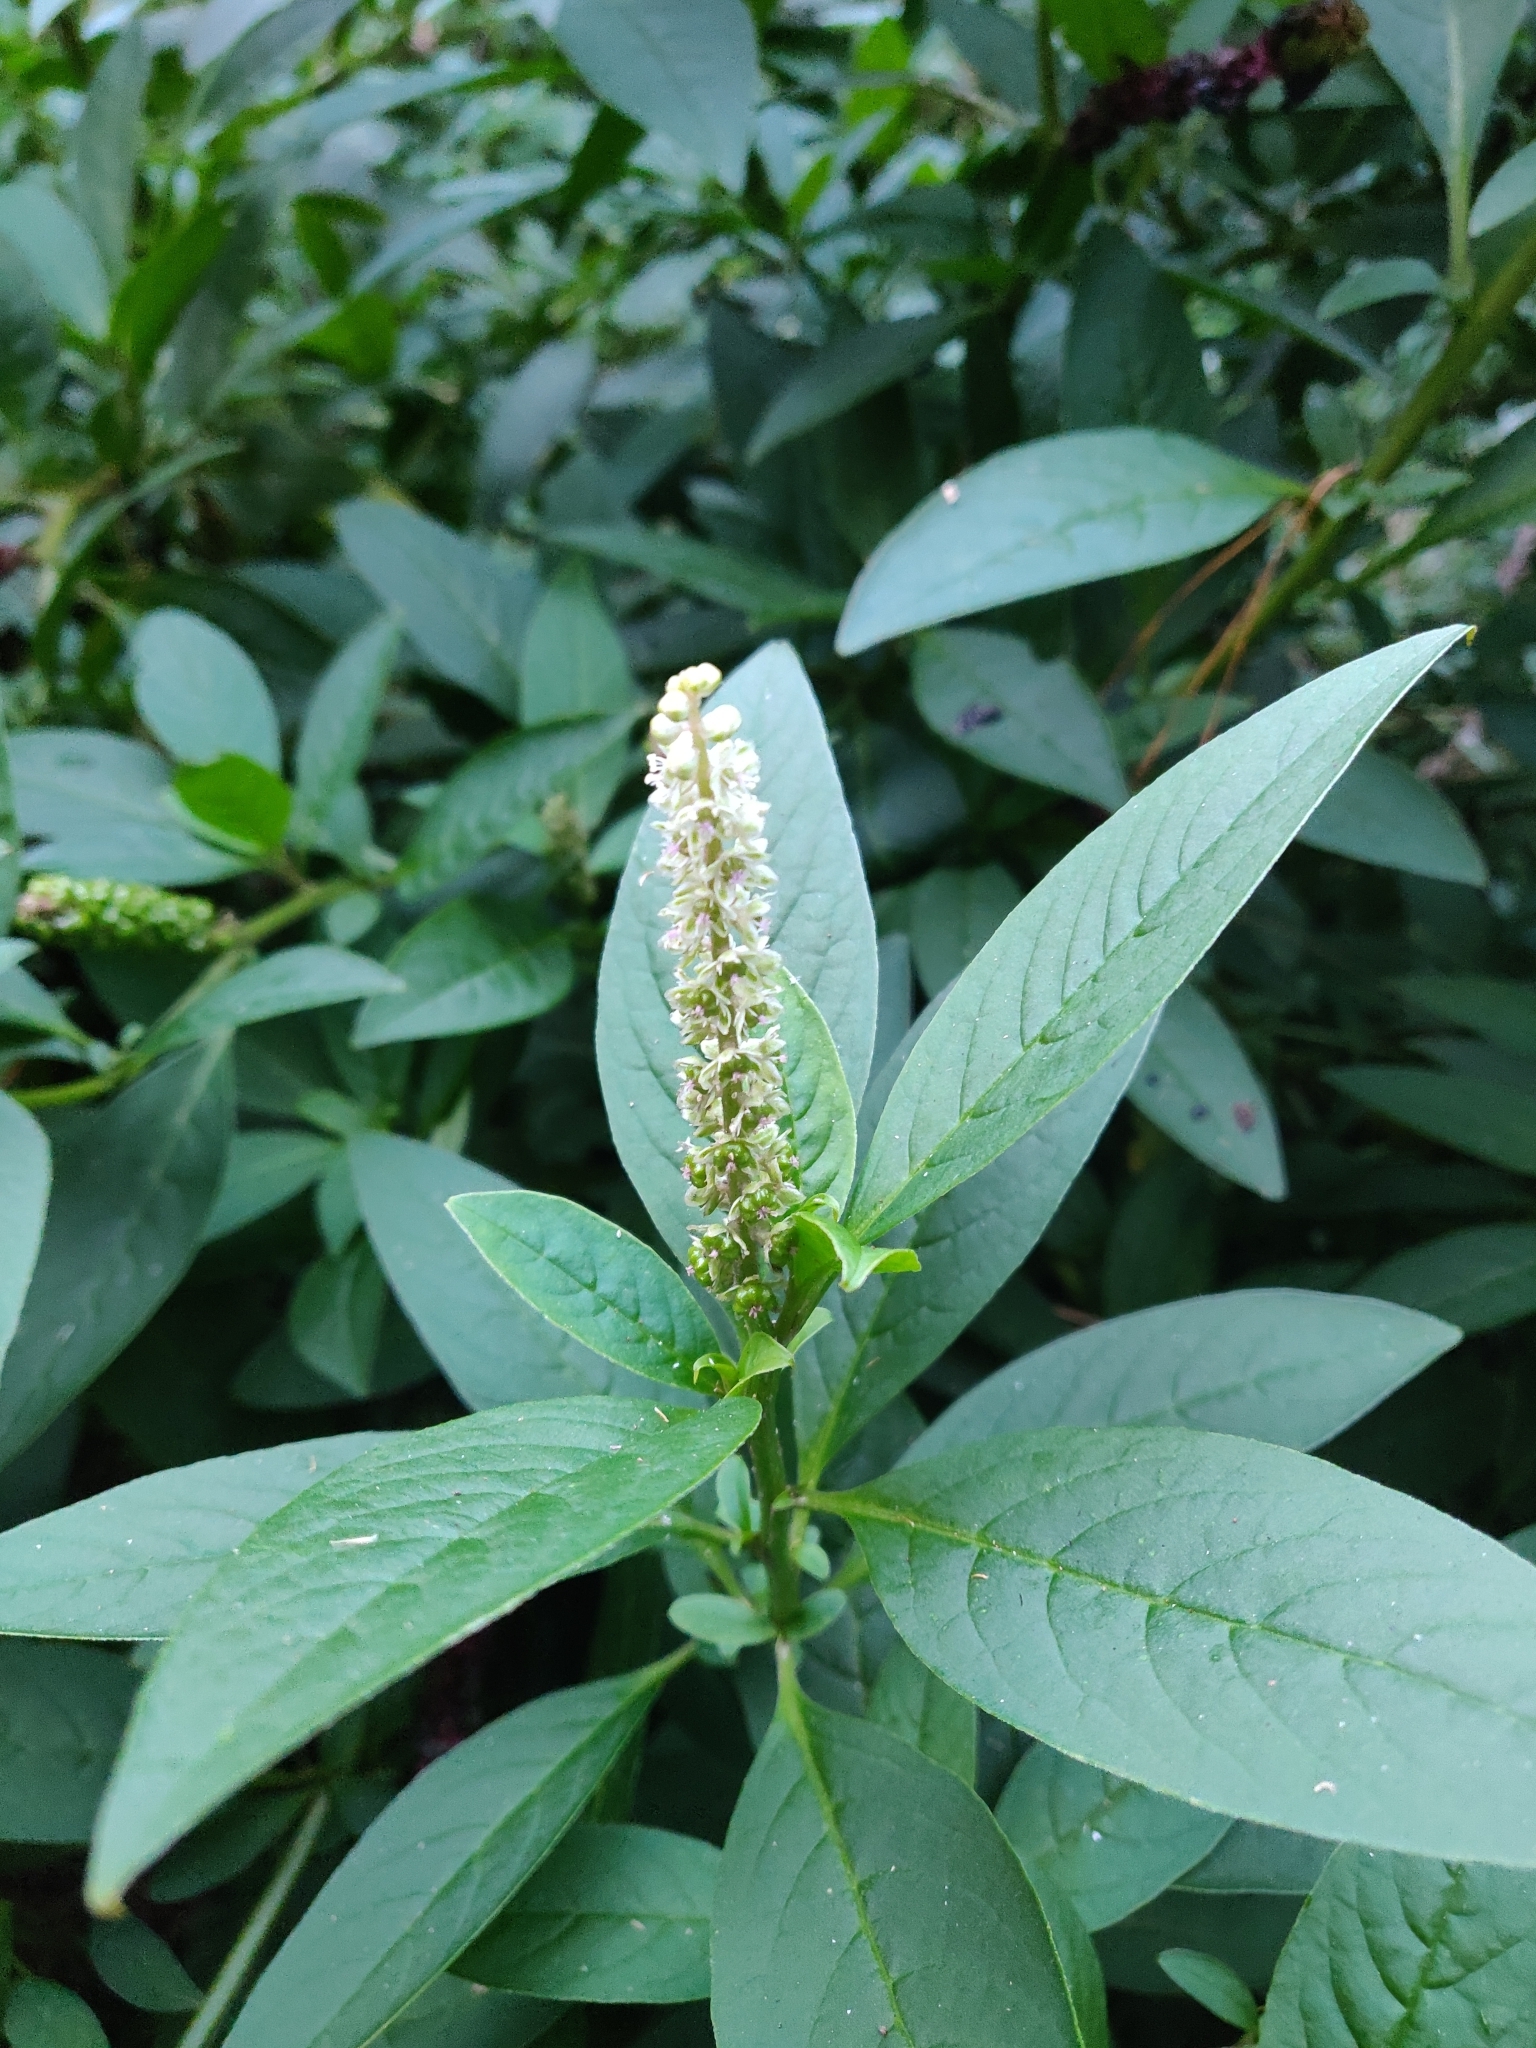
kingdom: Plantae
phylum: Tracheophyta
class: Magnoliopsida
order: Caryophyllales
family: Phytolaccaceae
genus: Phytolacca
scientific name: Phytolacca icosandra
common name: Button pokeweed
